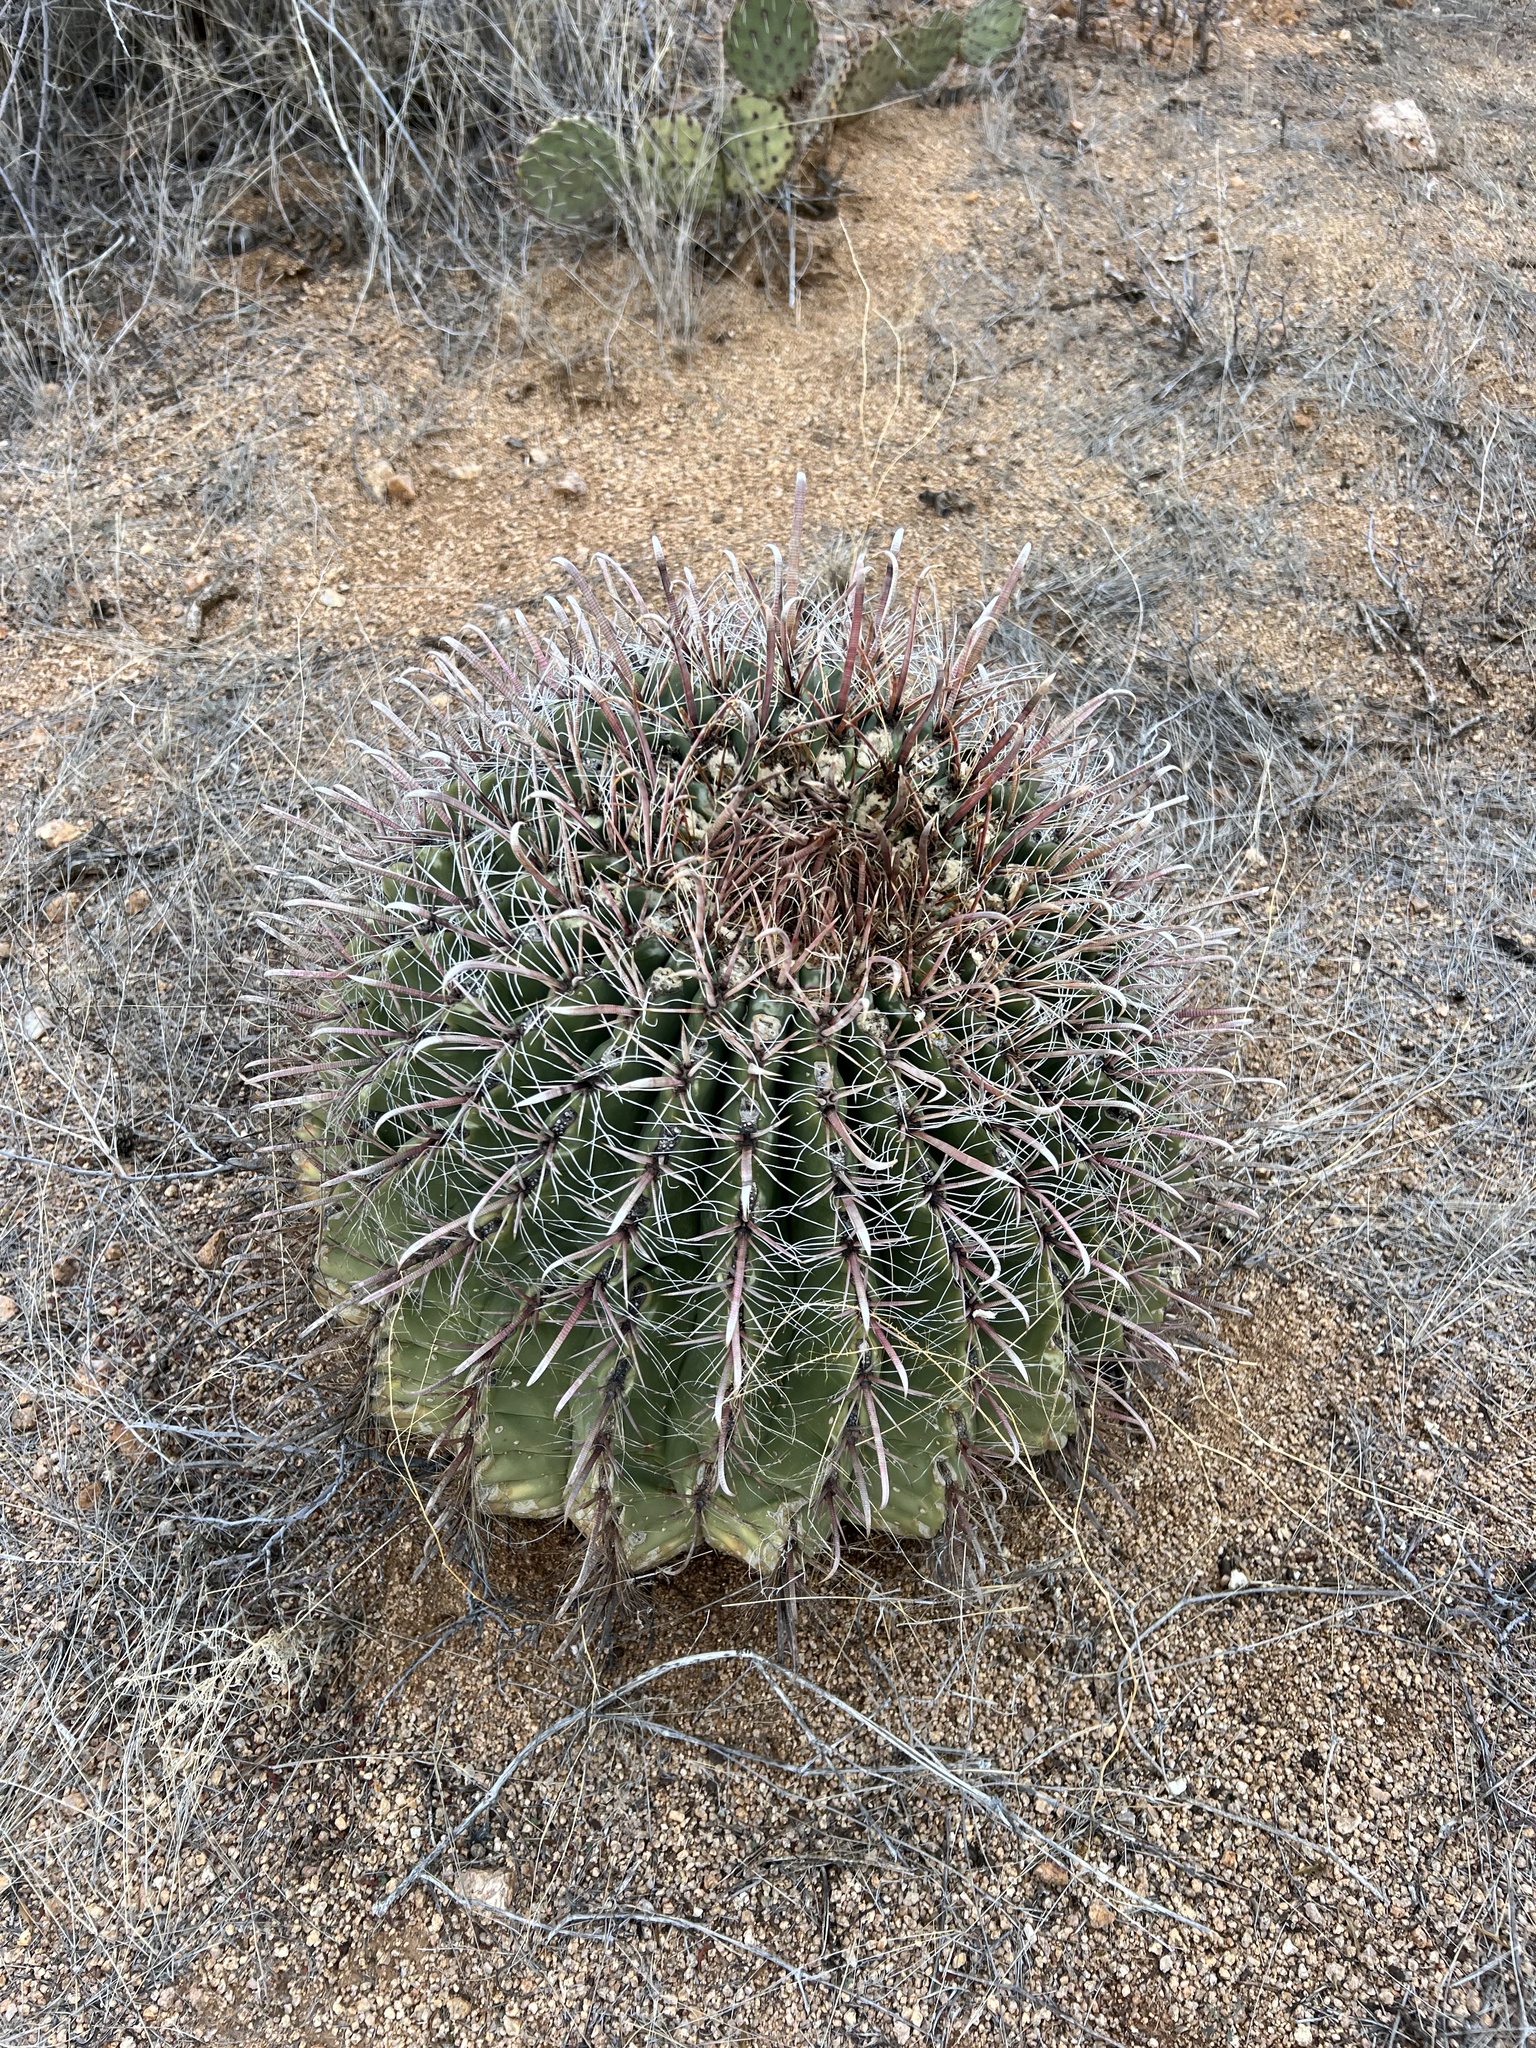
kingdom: Plantae
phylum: Tracheophyta
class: Magnoliopsida
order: Caryophyllales
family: Cactaceae
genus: Ferocactus
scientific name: Ferocactus wislizeni
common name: Candy barrel cactus
